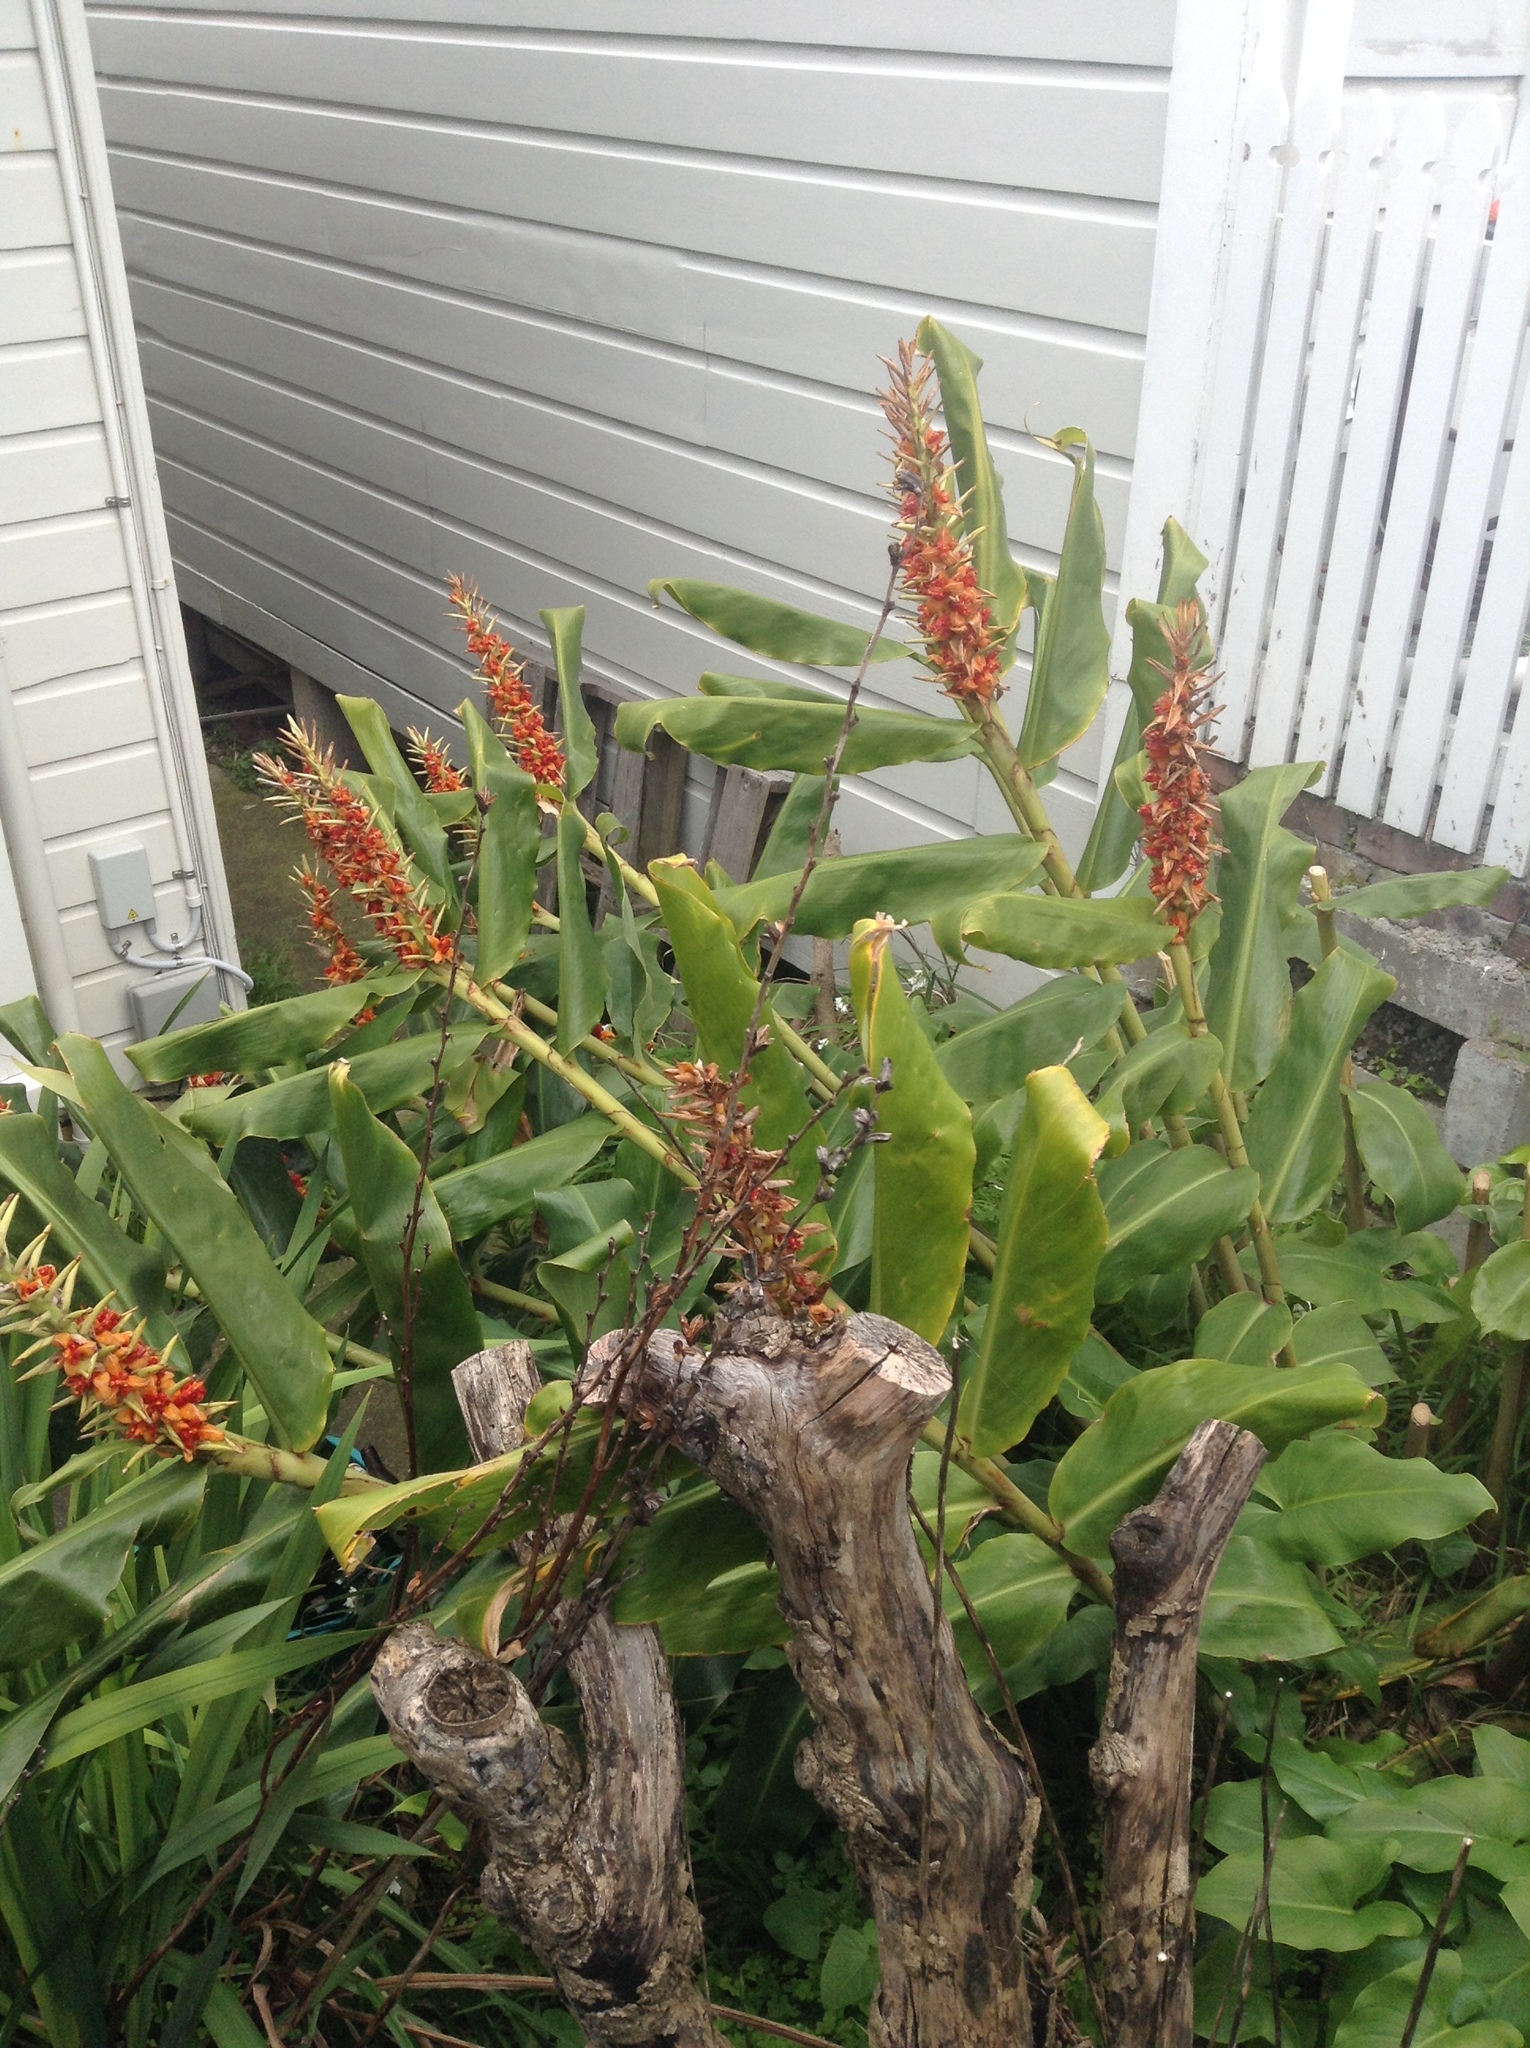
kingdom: Plantae
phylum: Tracheophyta
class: Liliopsida
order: Zingiberales
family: Zingiberaceae
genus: Hedychium
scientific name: Hedychium gardnerianum
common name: Himalayan ginger
